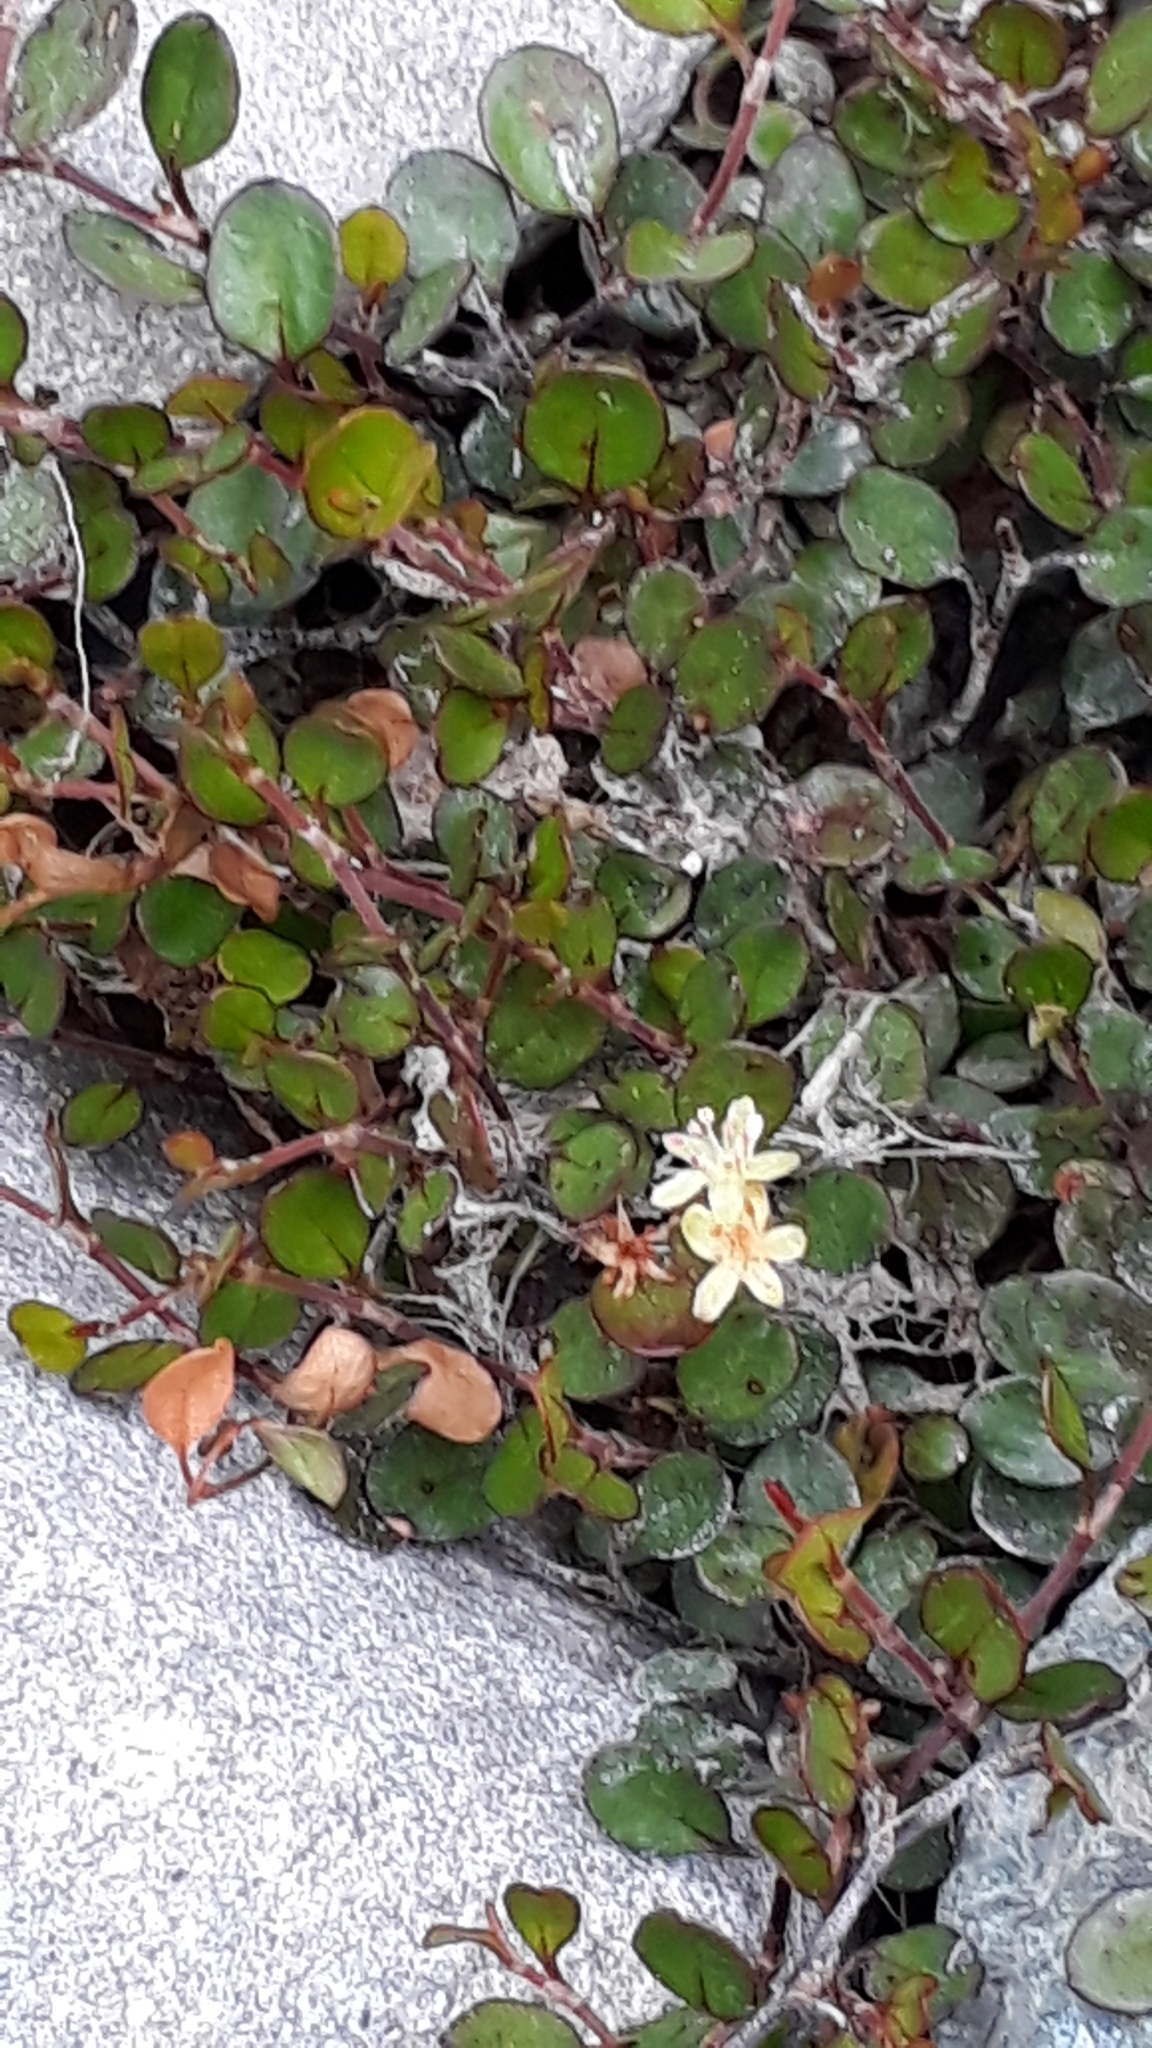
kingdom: Plantae
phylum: Tracheophyta
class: Magnoliopsida
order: Caryophyllales
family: Polygonaceae
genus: Muehlenbeckia
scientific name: Muehlenbeckia axillaris
